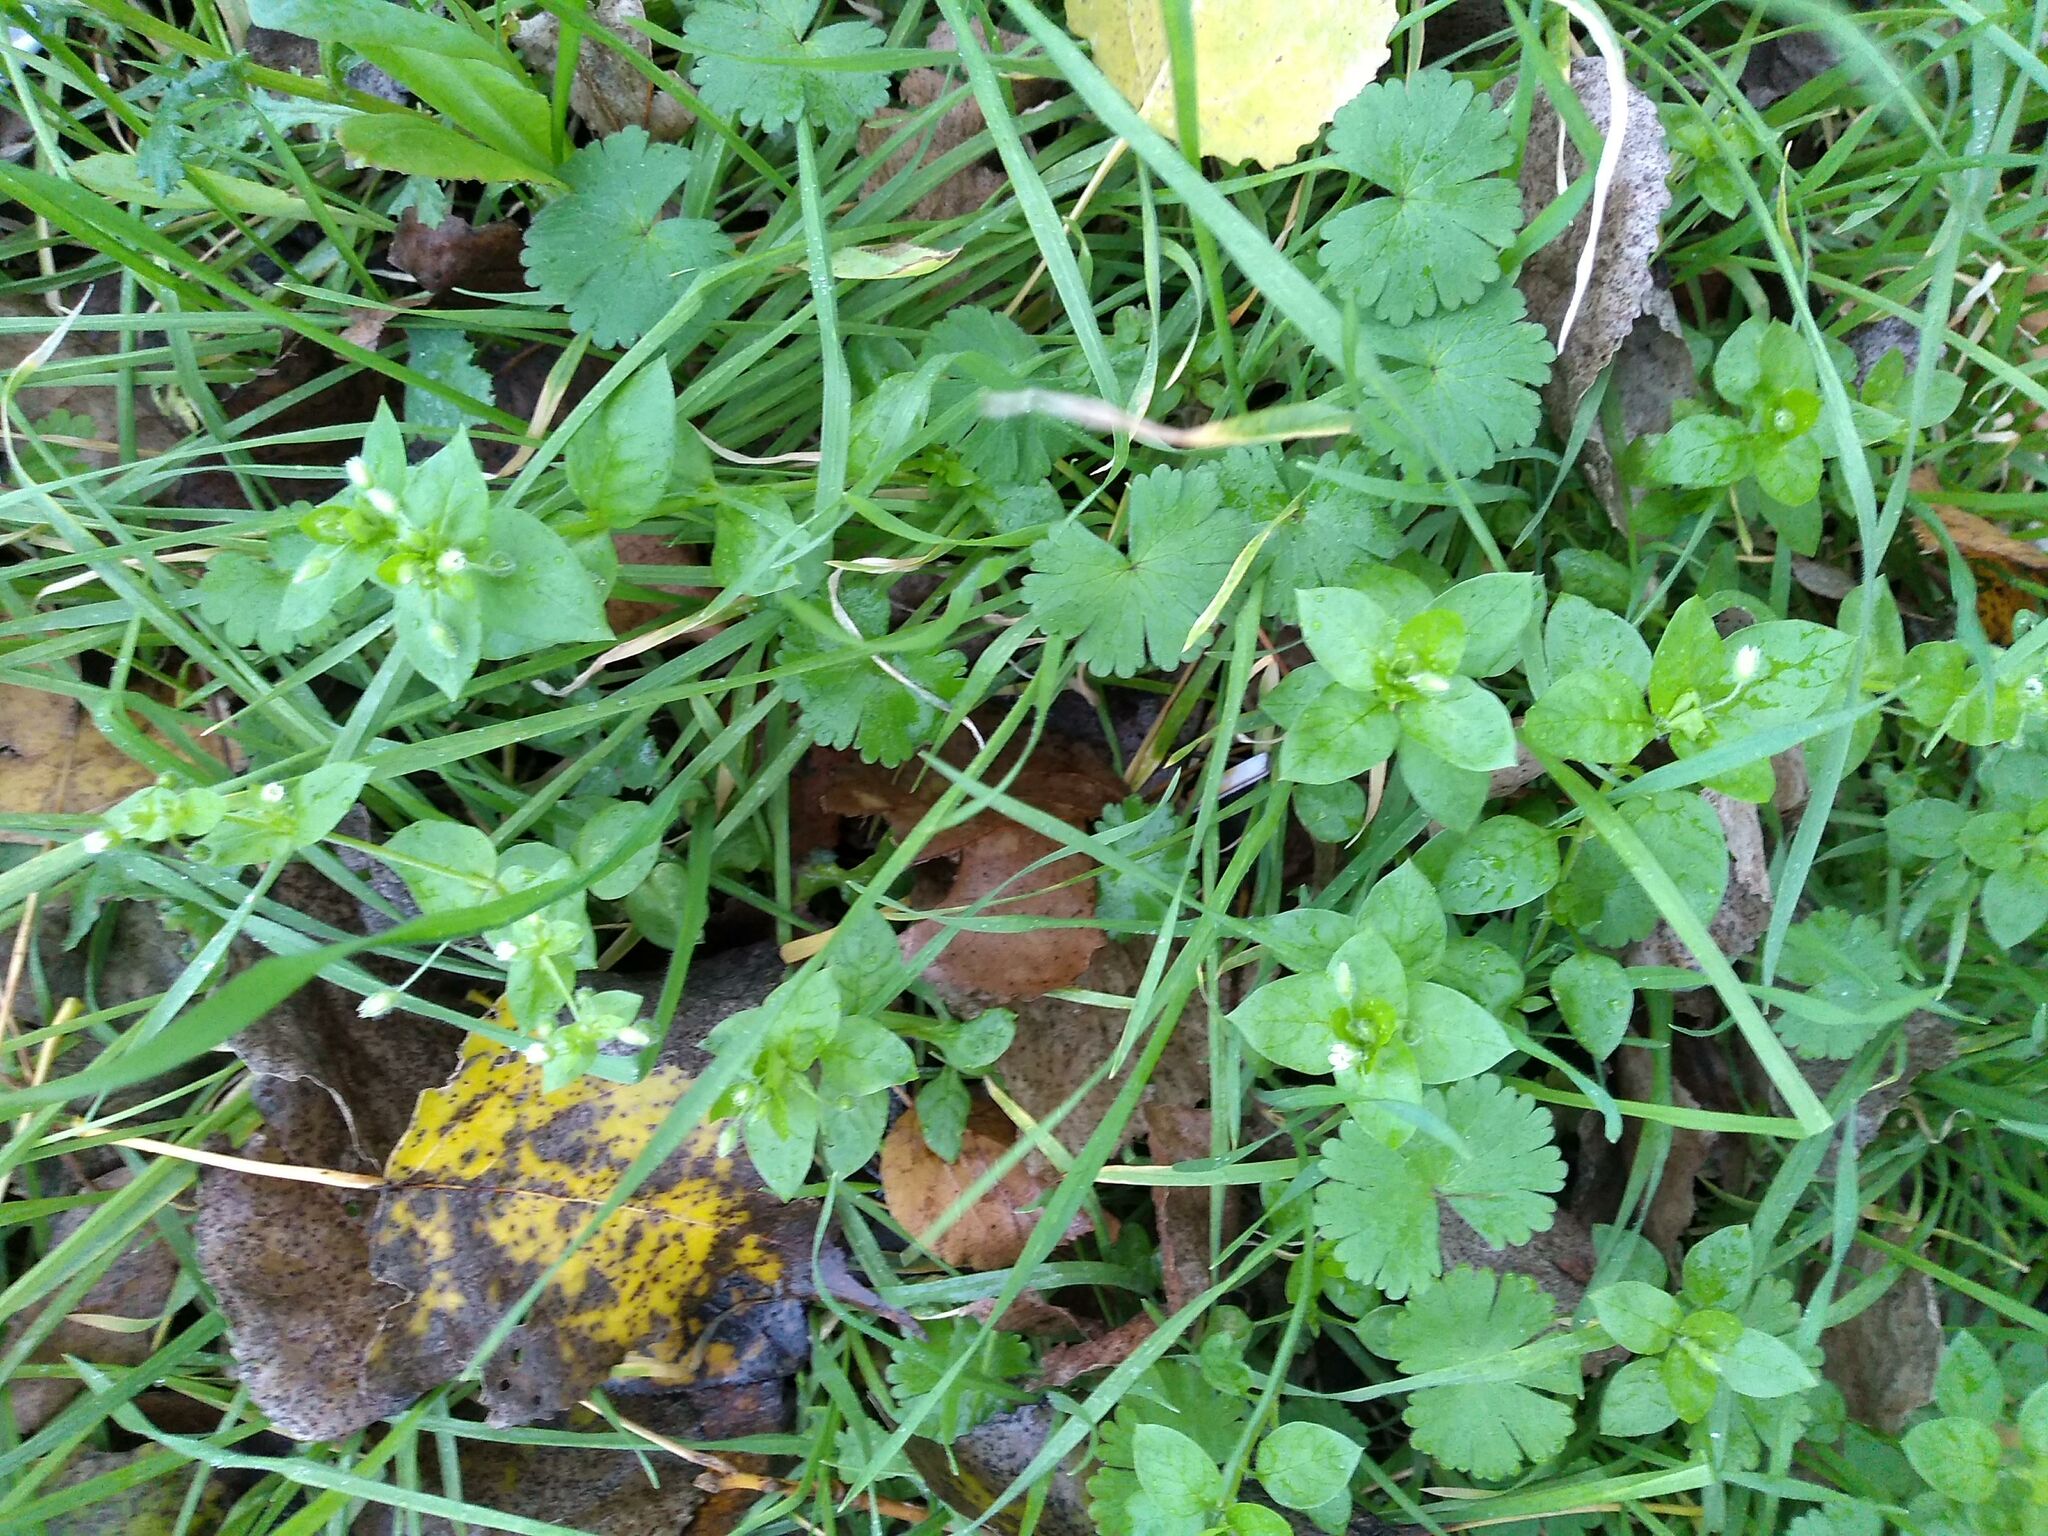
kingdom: Plantae
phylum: Tracheophyta
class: Magnoliopsida
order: Caryophyllales
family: Caryophyllaceae
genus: Stellaria
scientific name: Stellaria media
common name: Common chickweed
